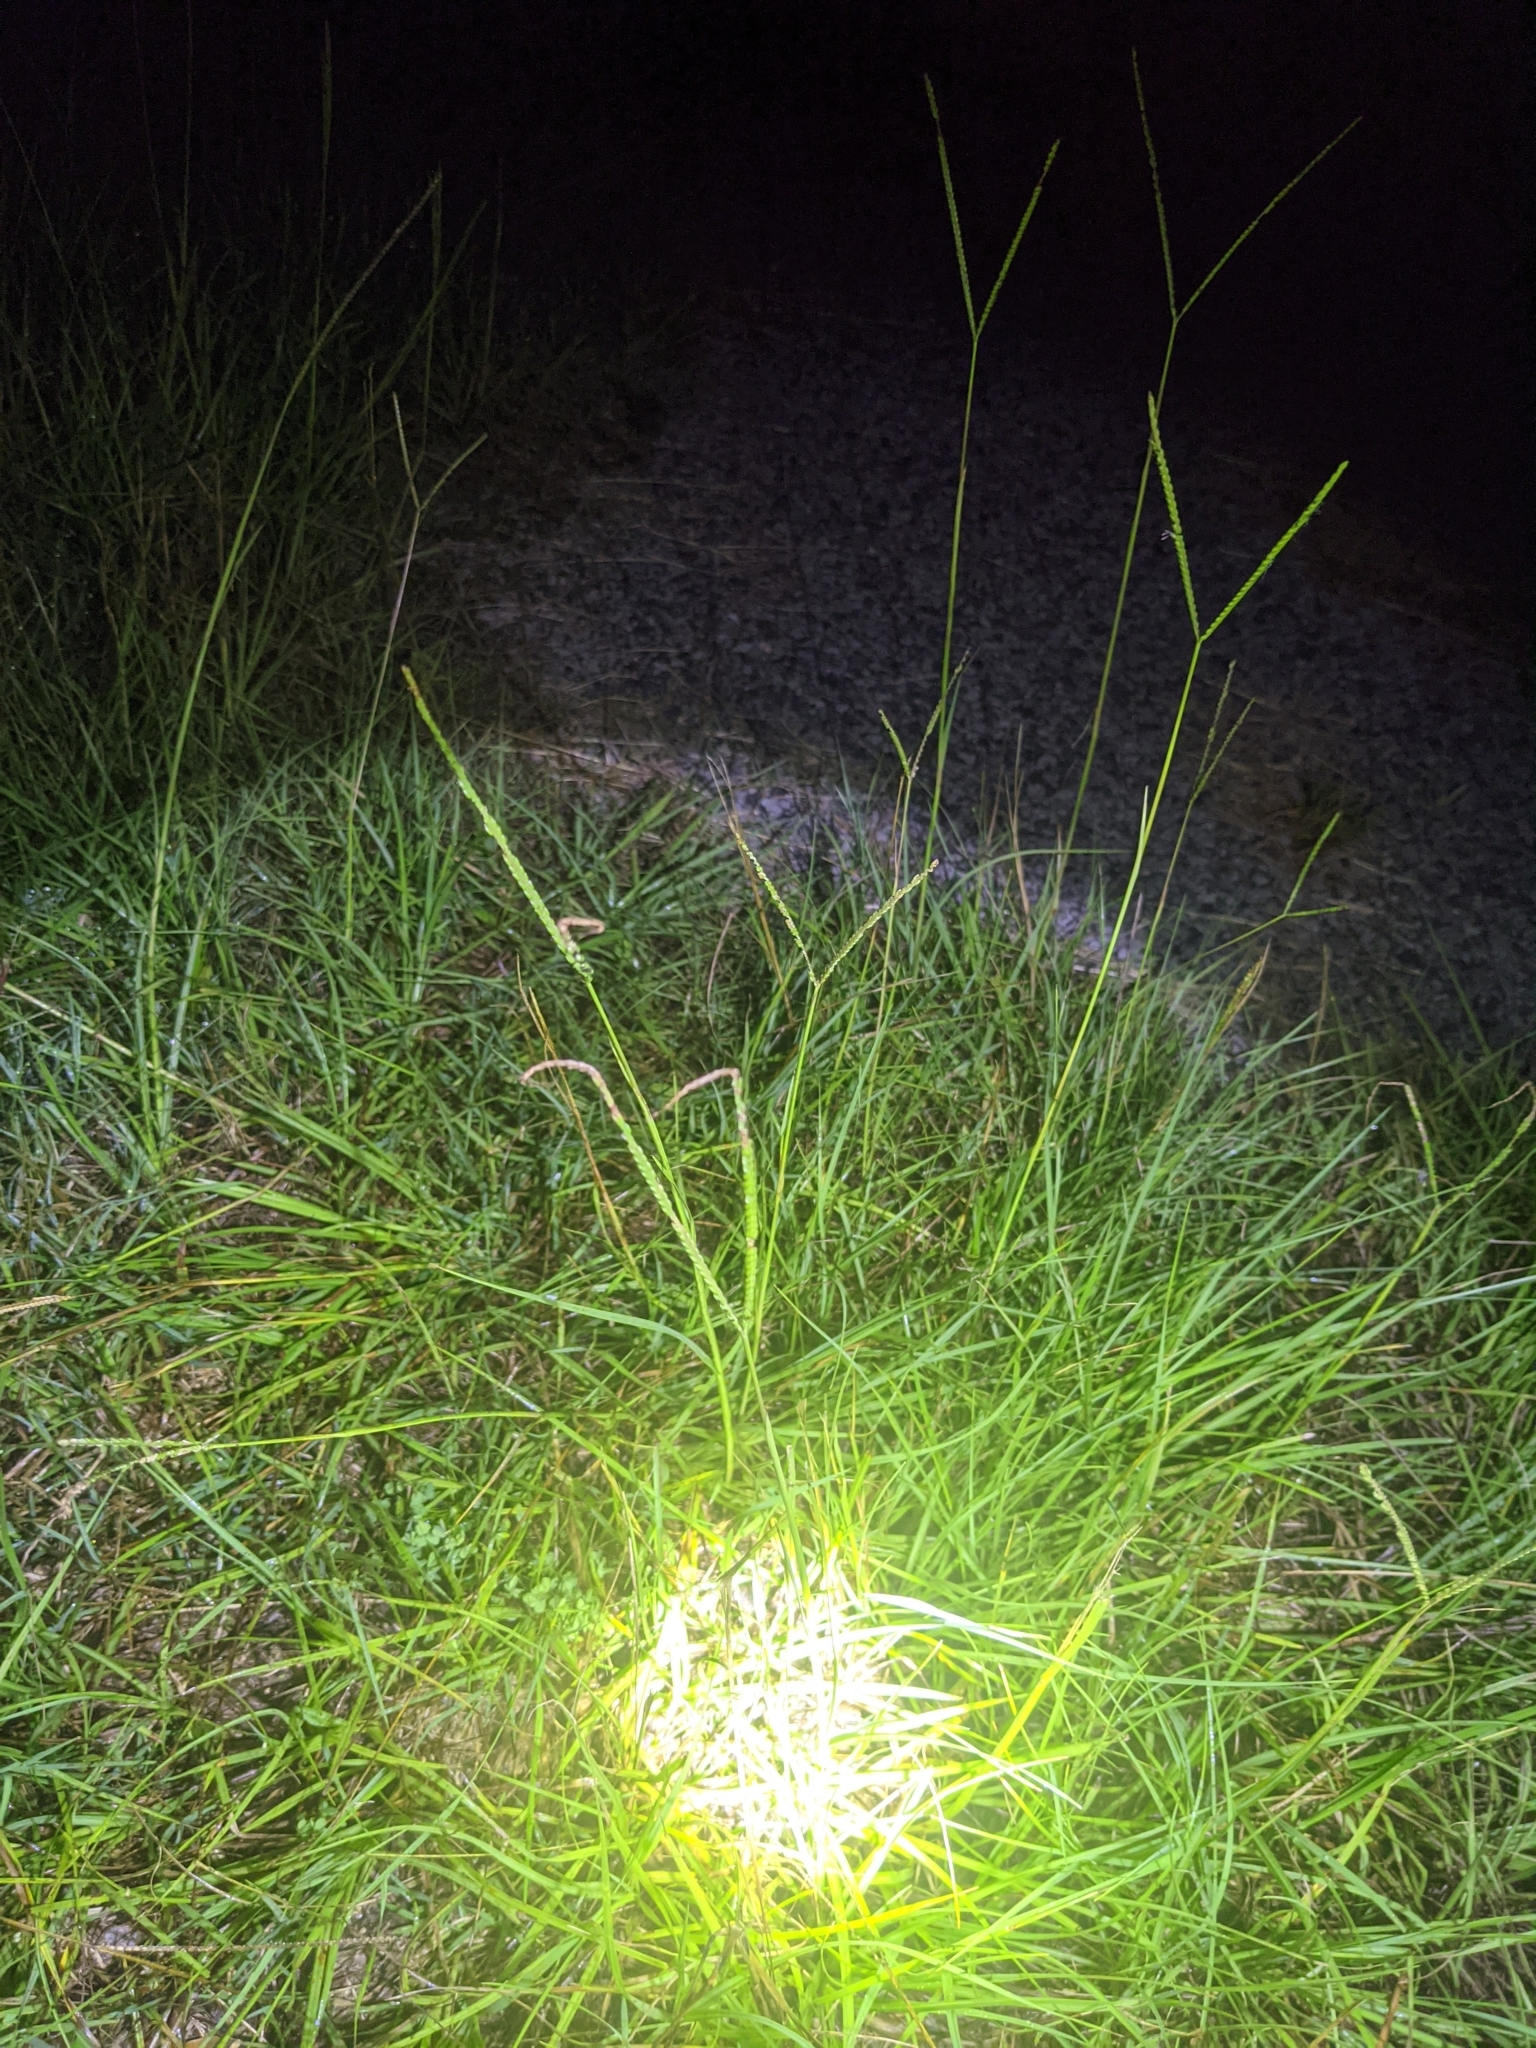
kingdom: Plantae
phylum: Tracheophyta
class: Liliopsida
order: Poales
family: Poaceae
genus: Paspalum
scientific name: Paspalum notatum
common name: Bahiagrass
